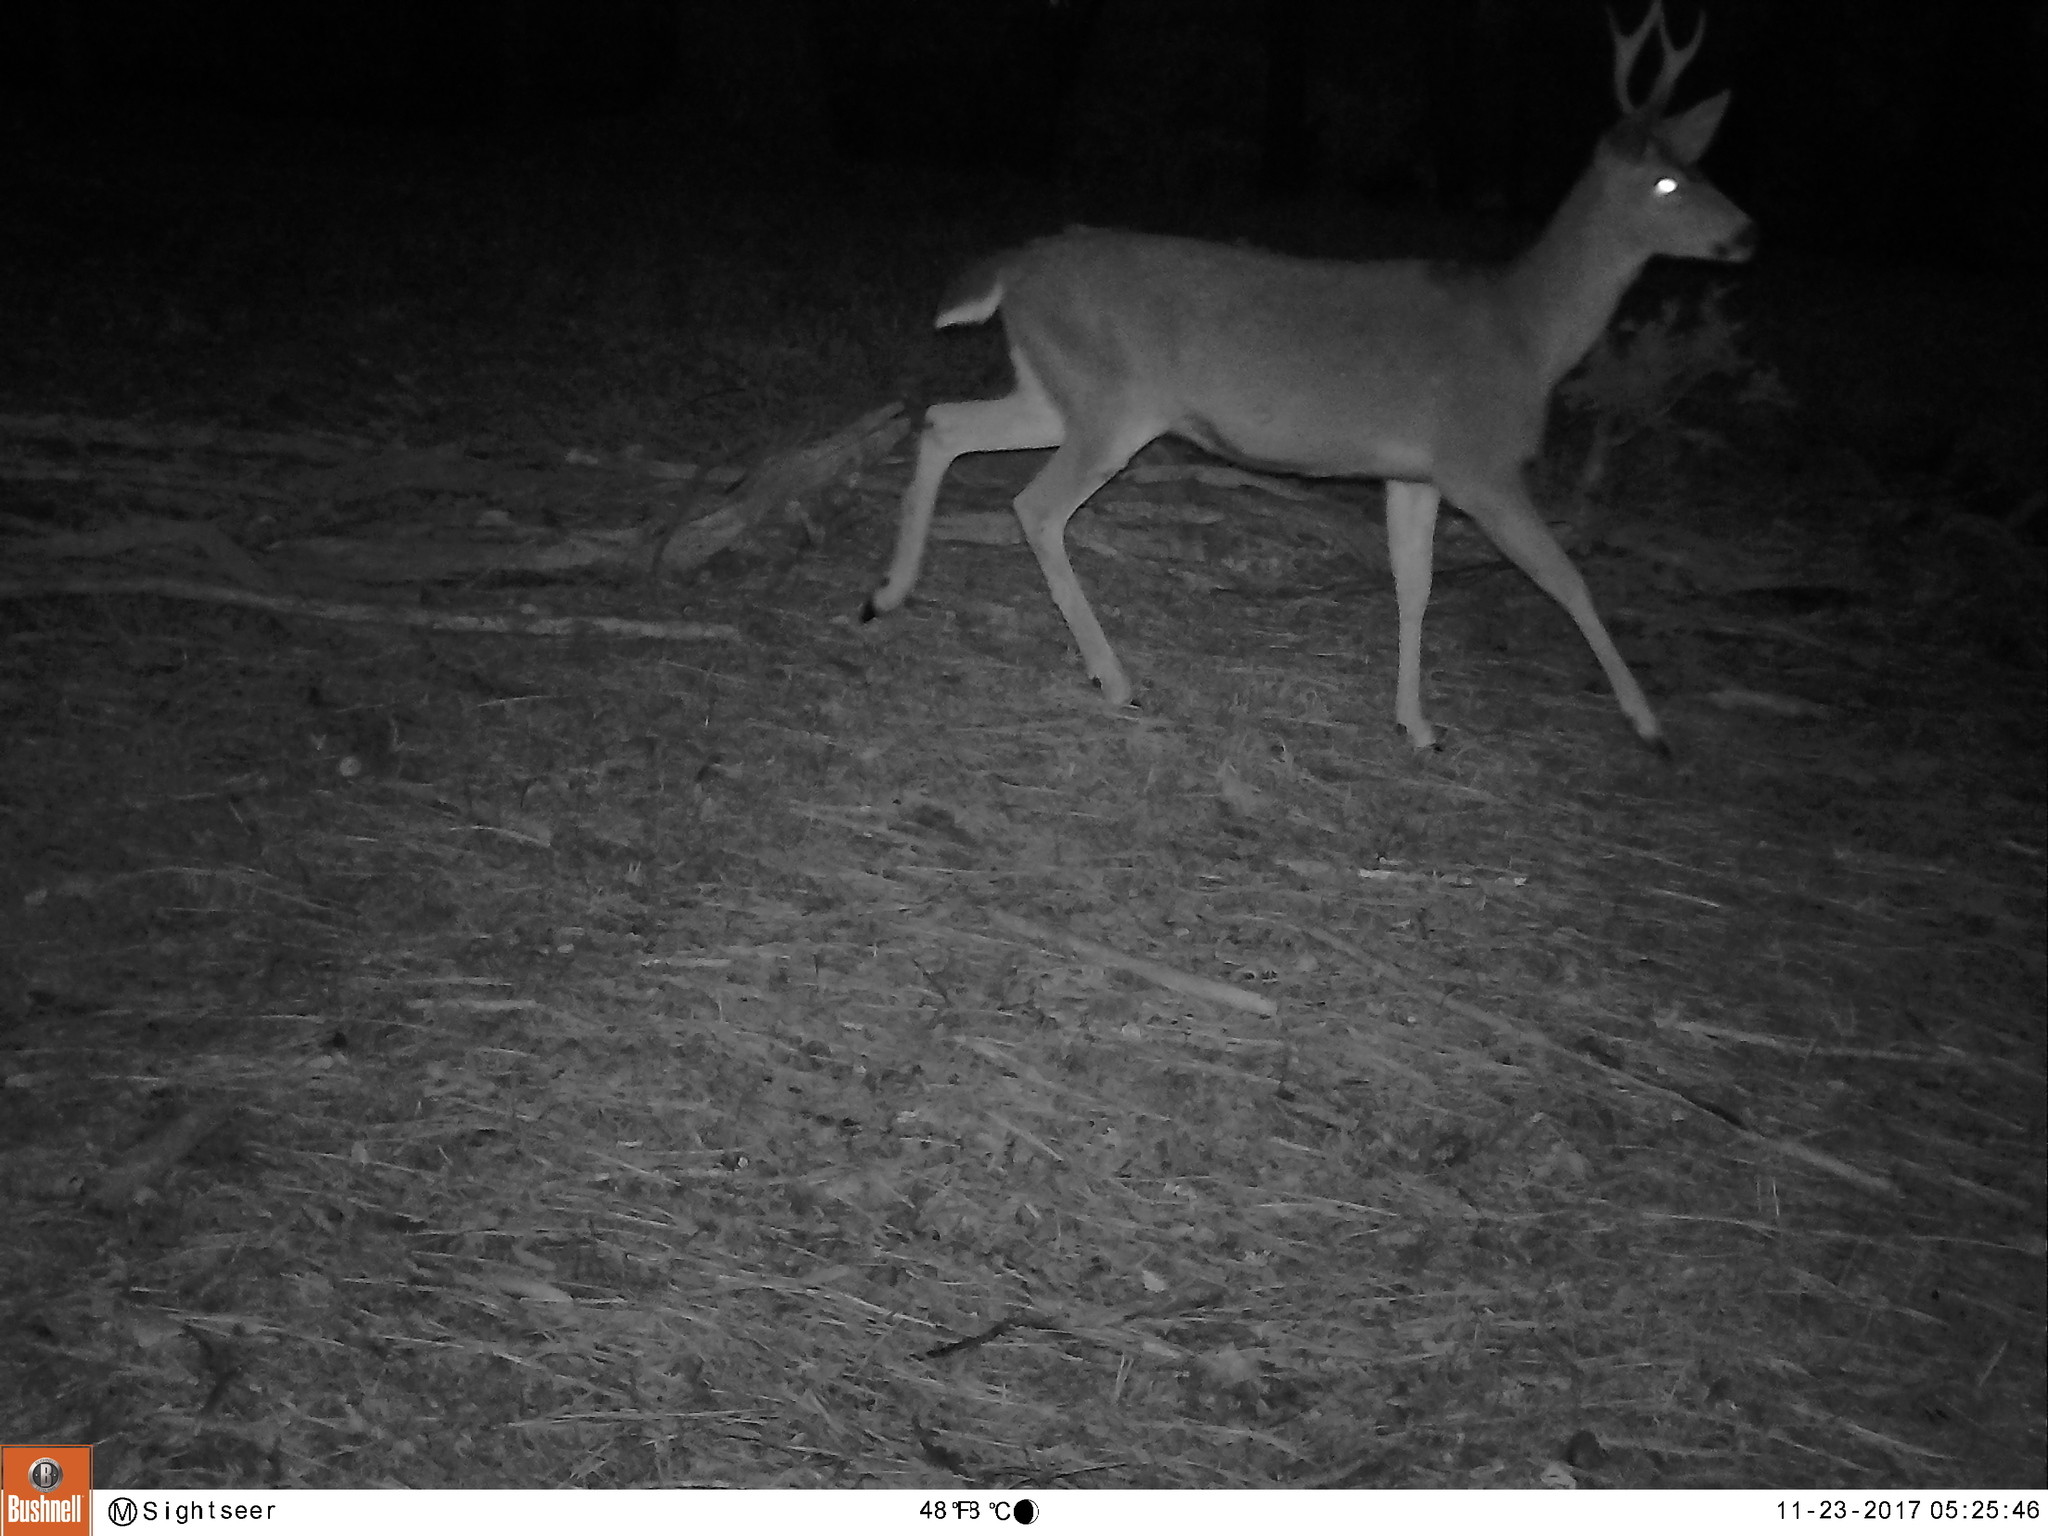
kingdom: Animalia
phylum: Chordata
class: Mammalia
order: Artiodactyla
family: Cervidae
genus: Odocoileus
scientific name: Odocoileus hemionus
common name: Mule deer
